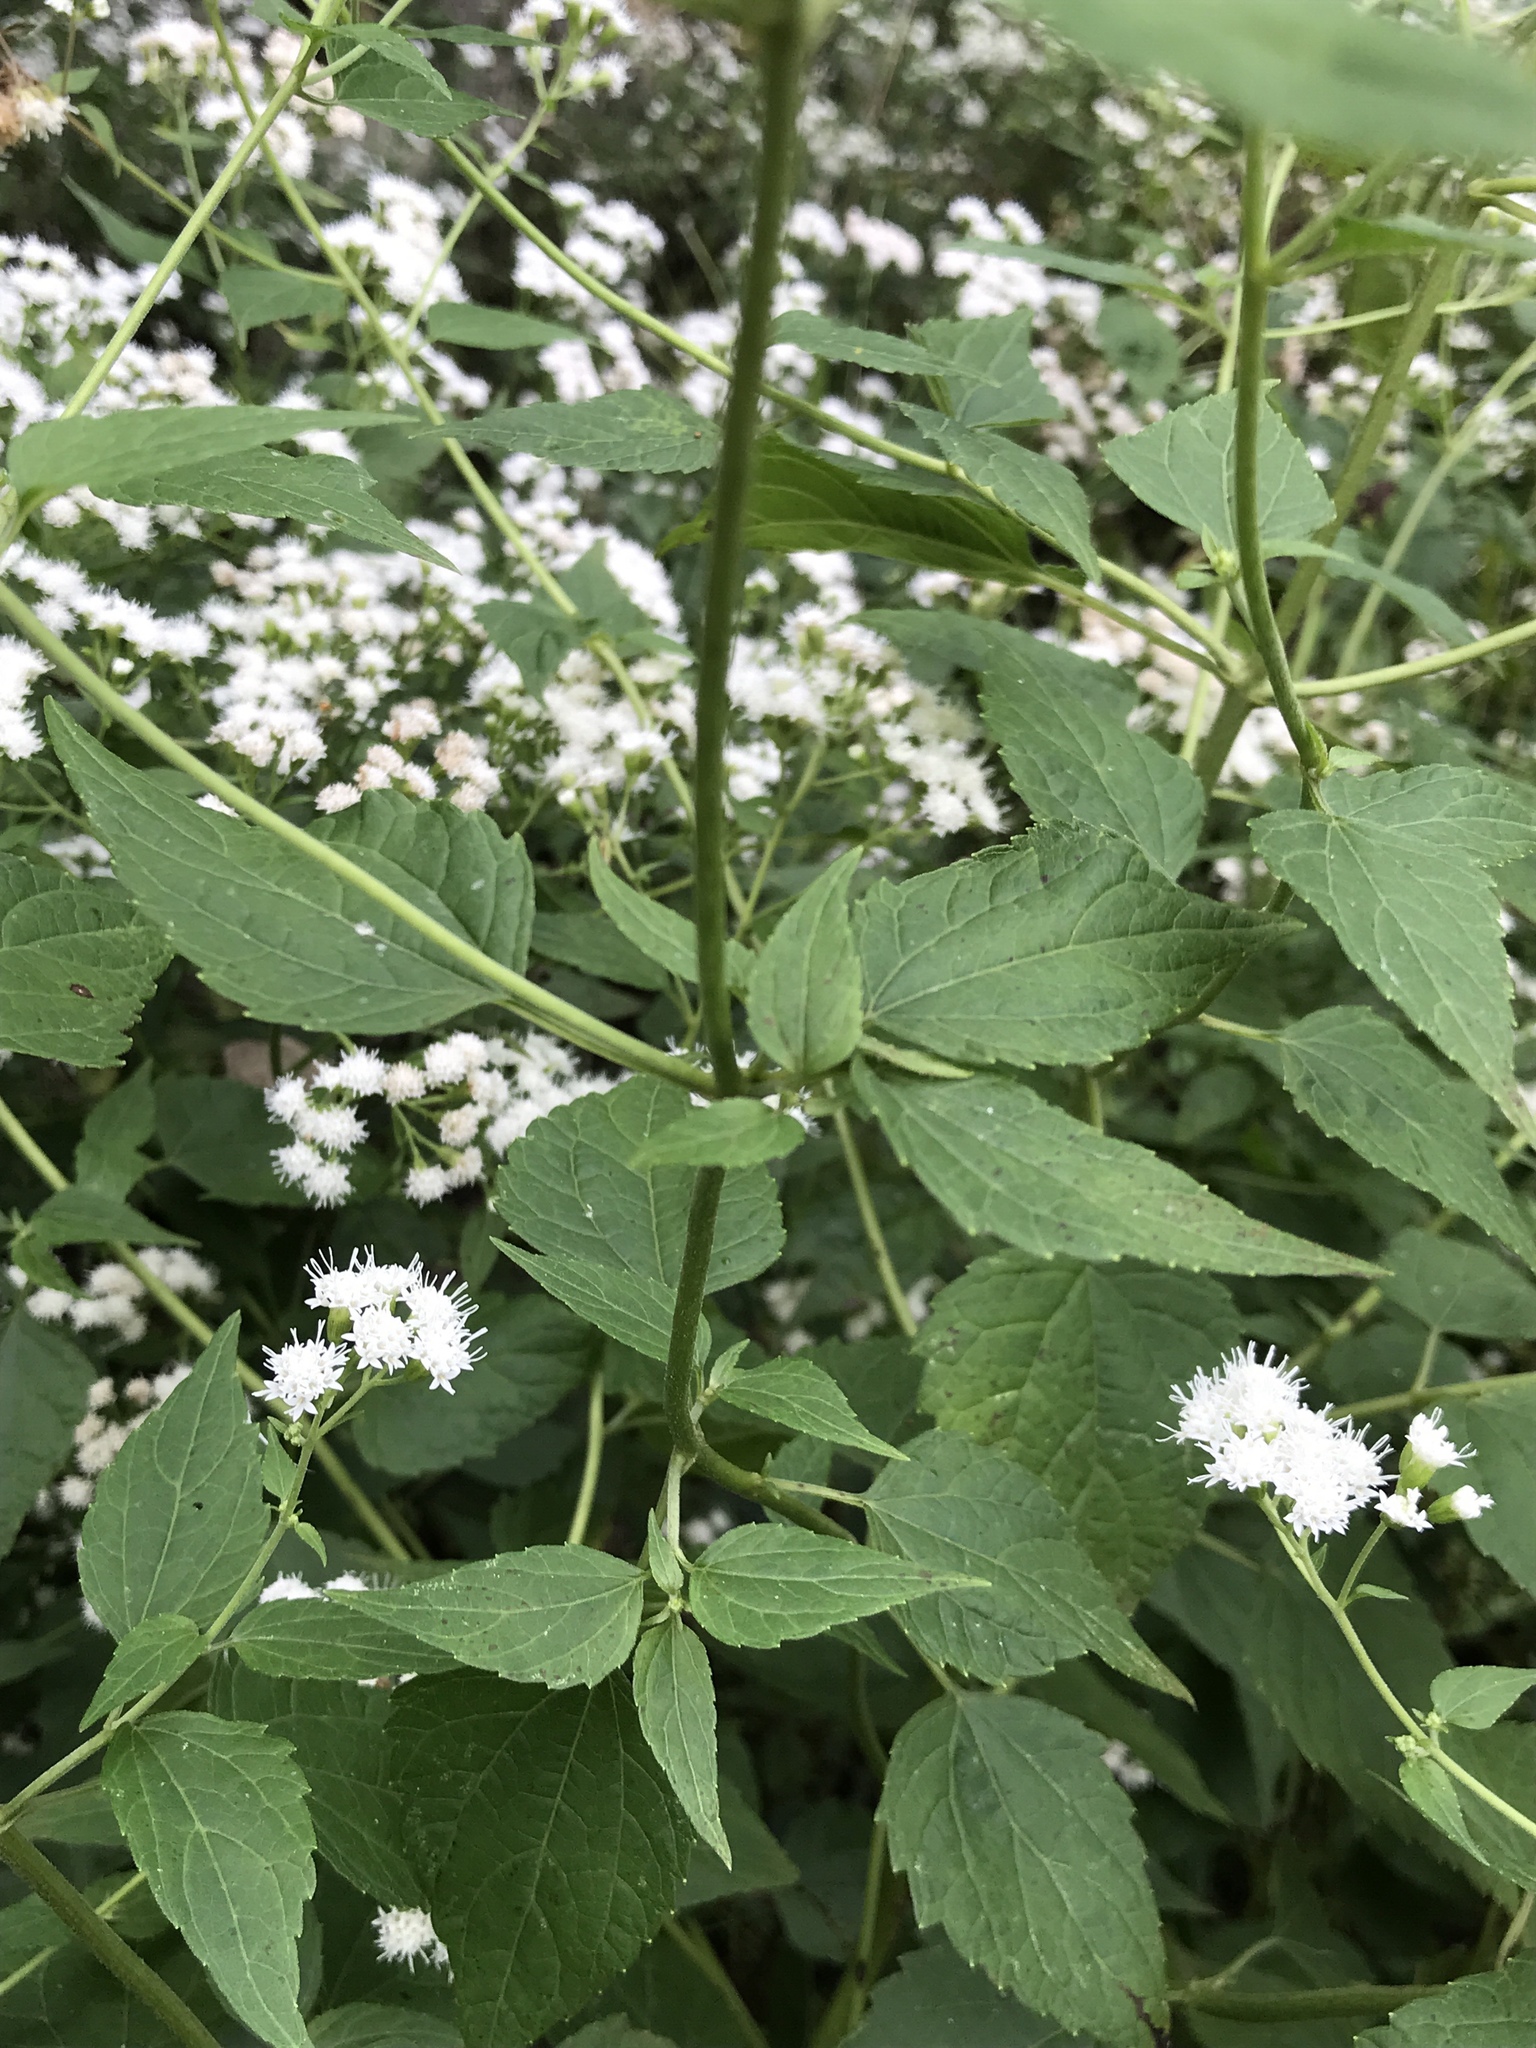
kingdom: Plantae
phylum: Tracheophyta
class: Magnoliopsida
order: Asterales
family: Asteraceae
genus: Ageratina
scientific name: Ageratina altissima
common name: White snakeroot
